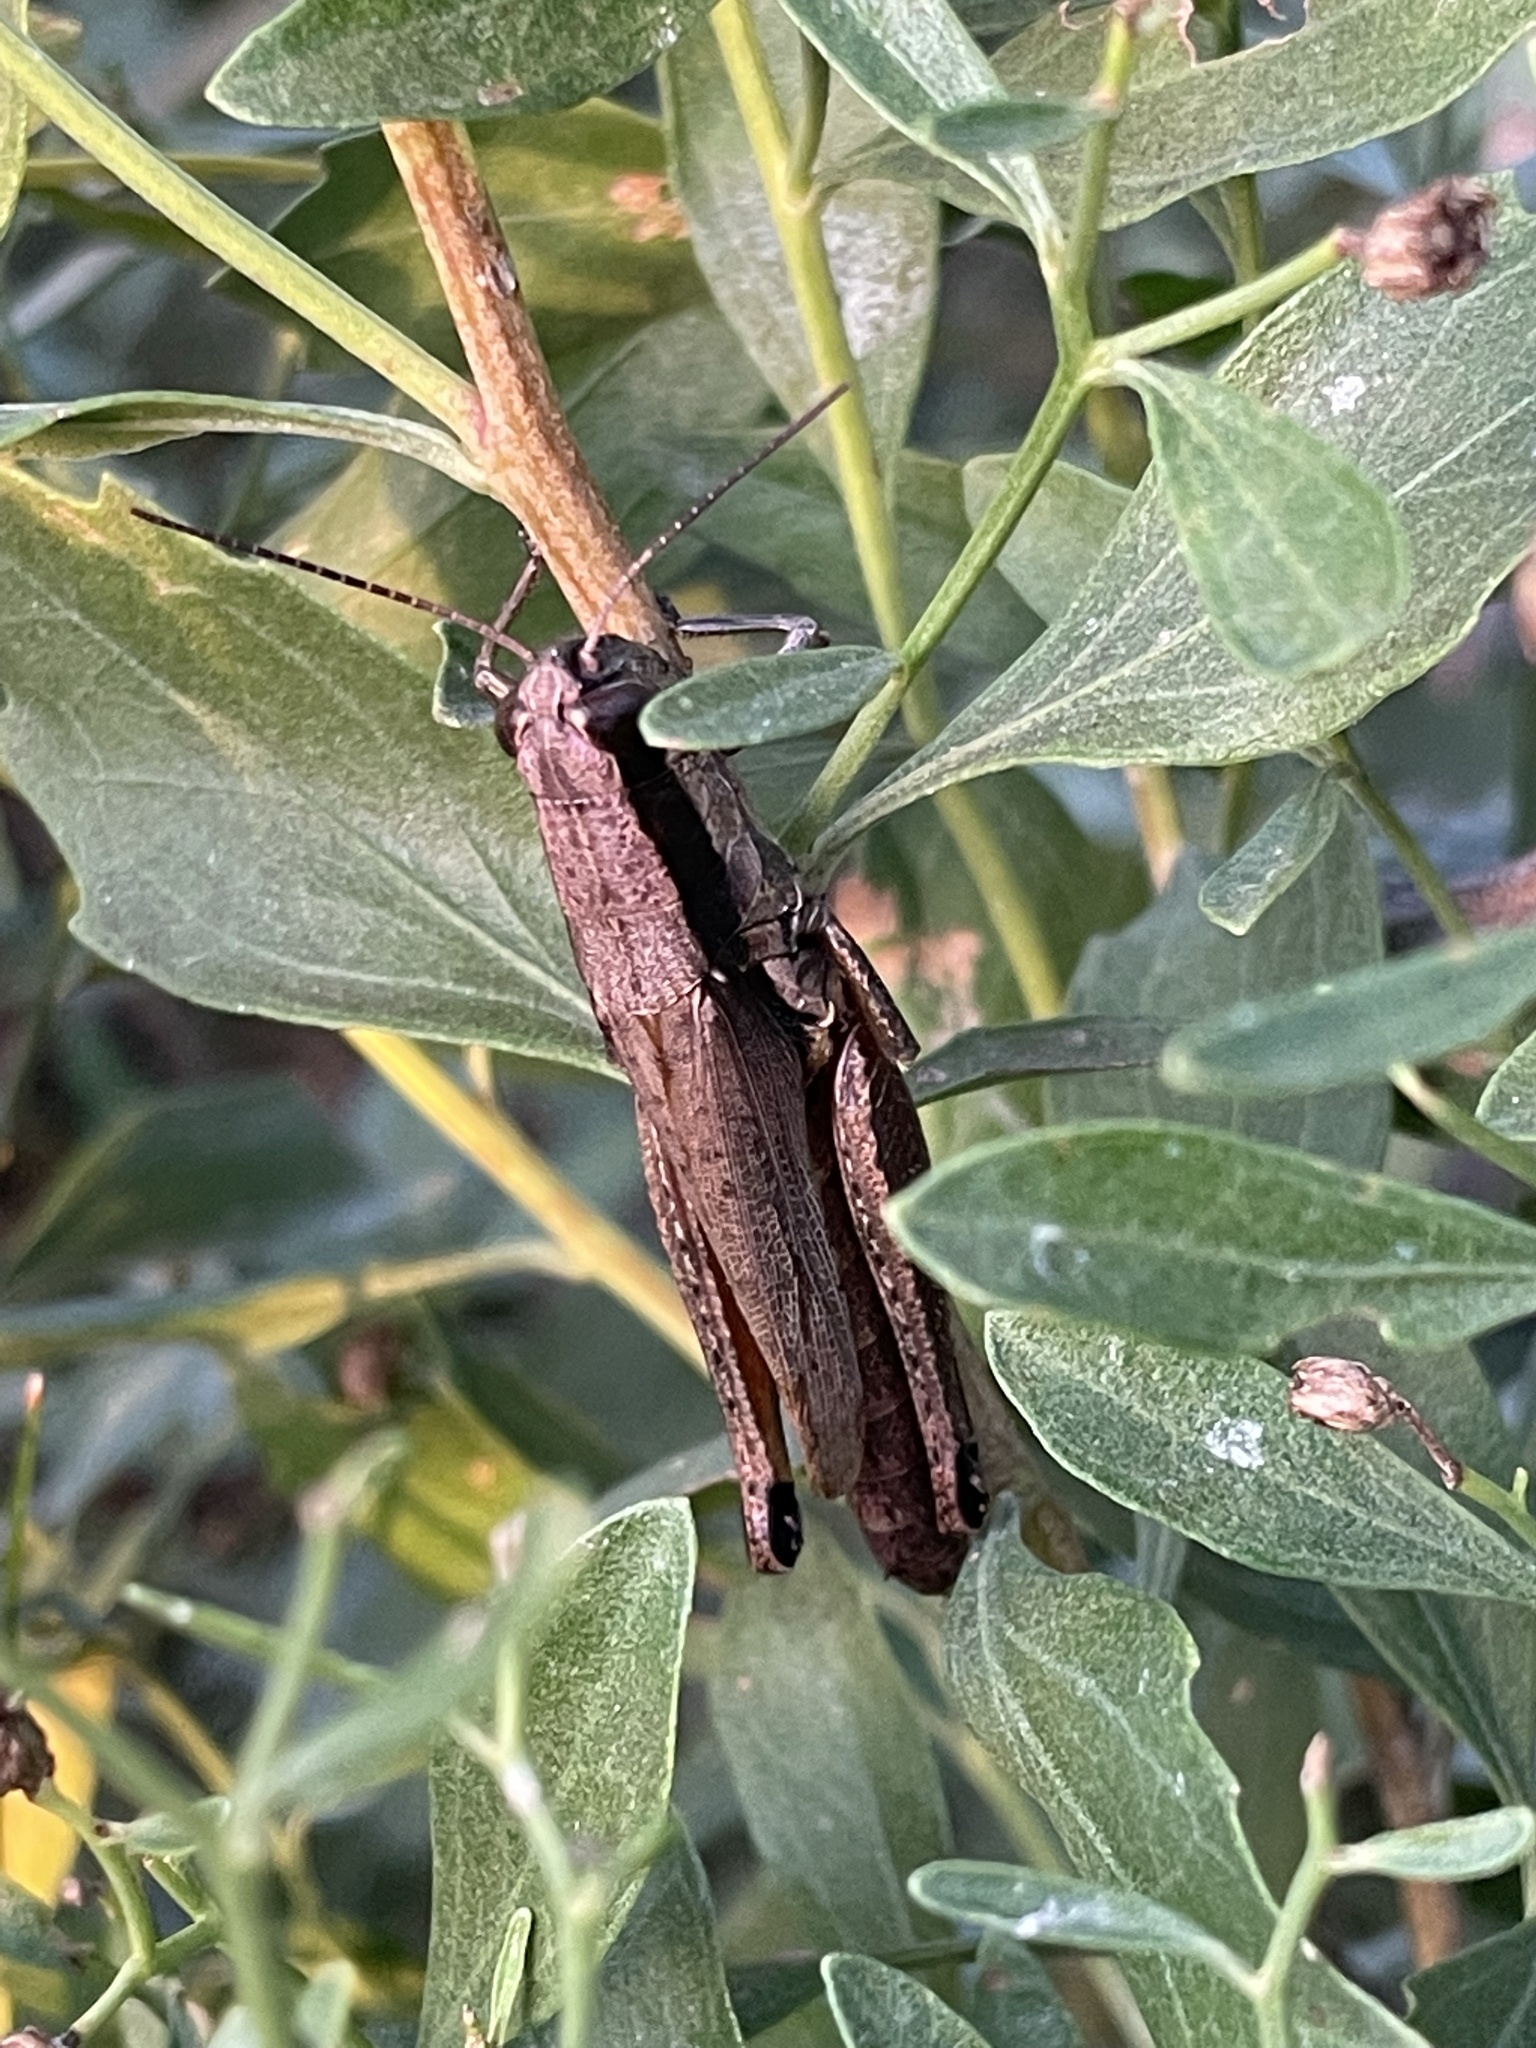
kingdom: Animalia
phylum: Arthropoda
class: Insecta
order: Orthoptera
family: Acrididae
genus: Paroxya
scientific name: Paroxya clavuligera
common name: Olive-green swamp grasshopper
